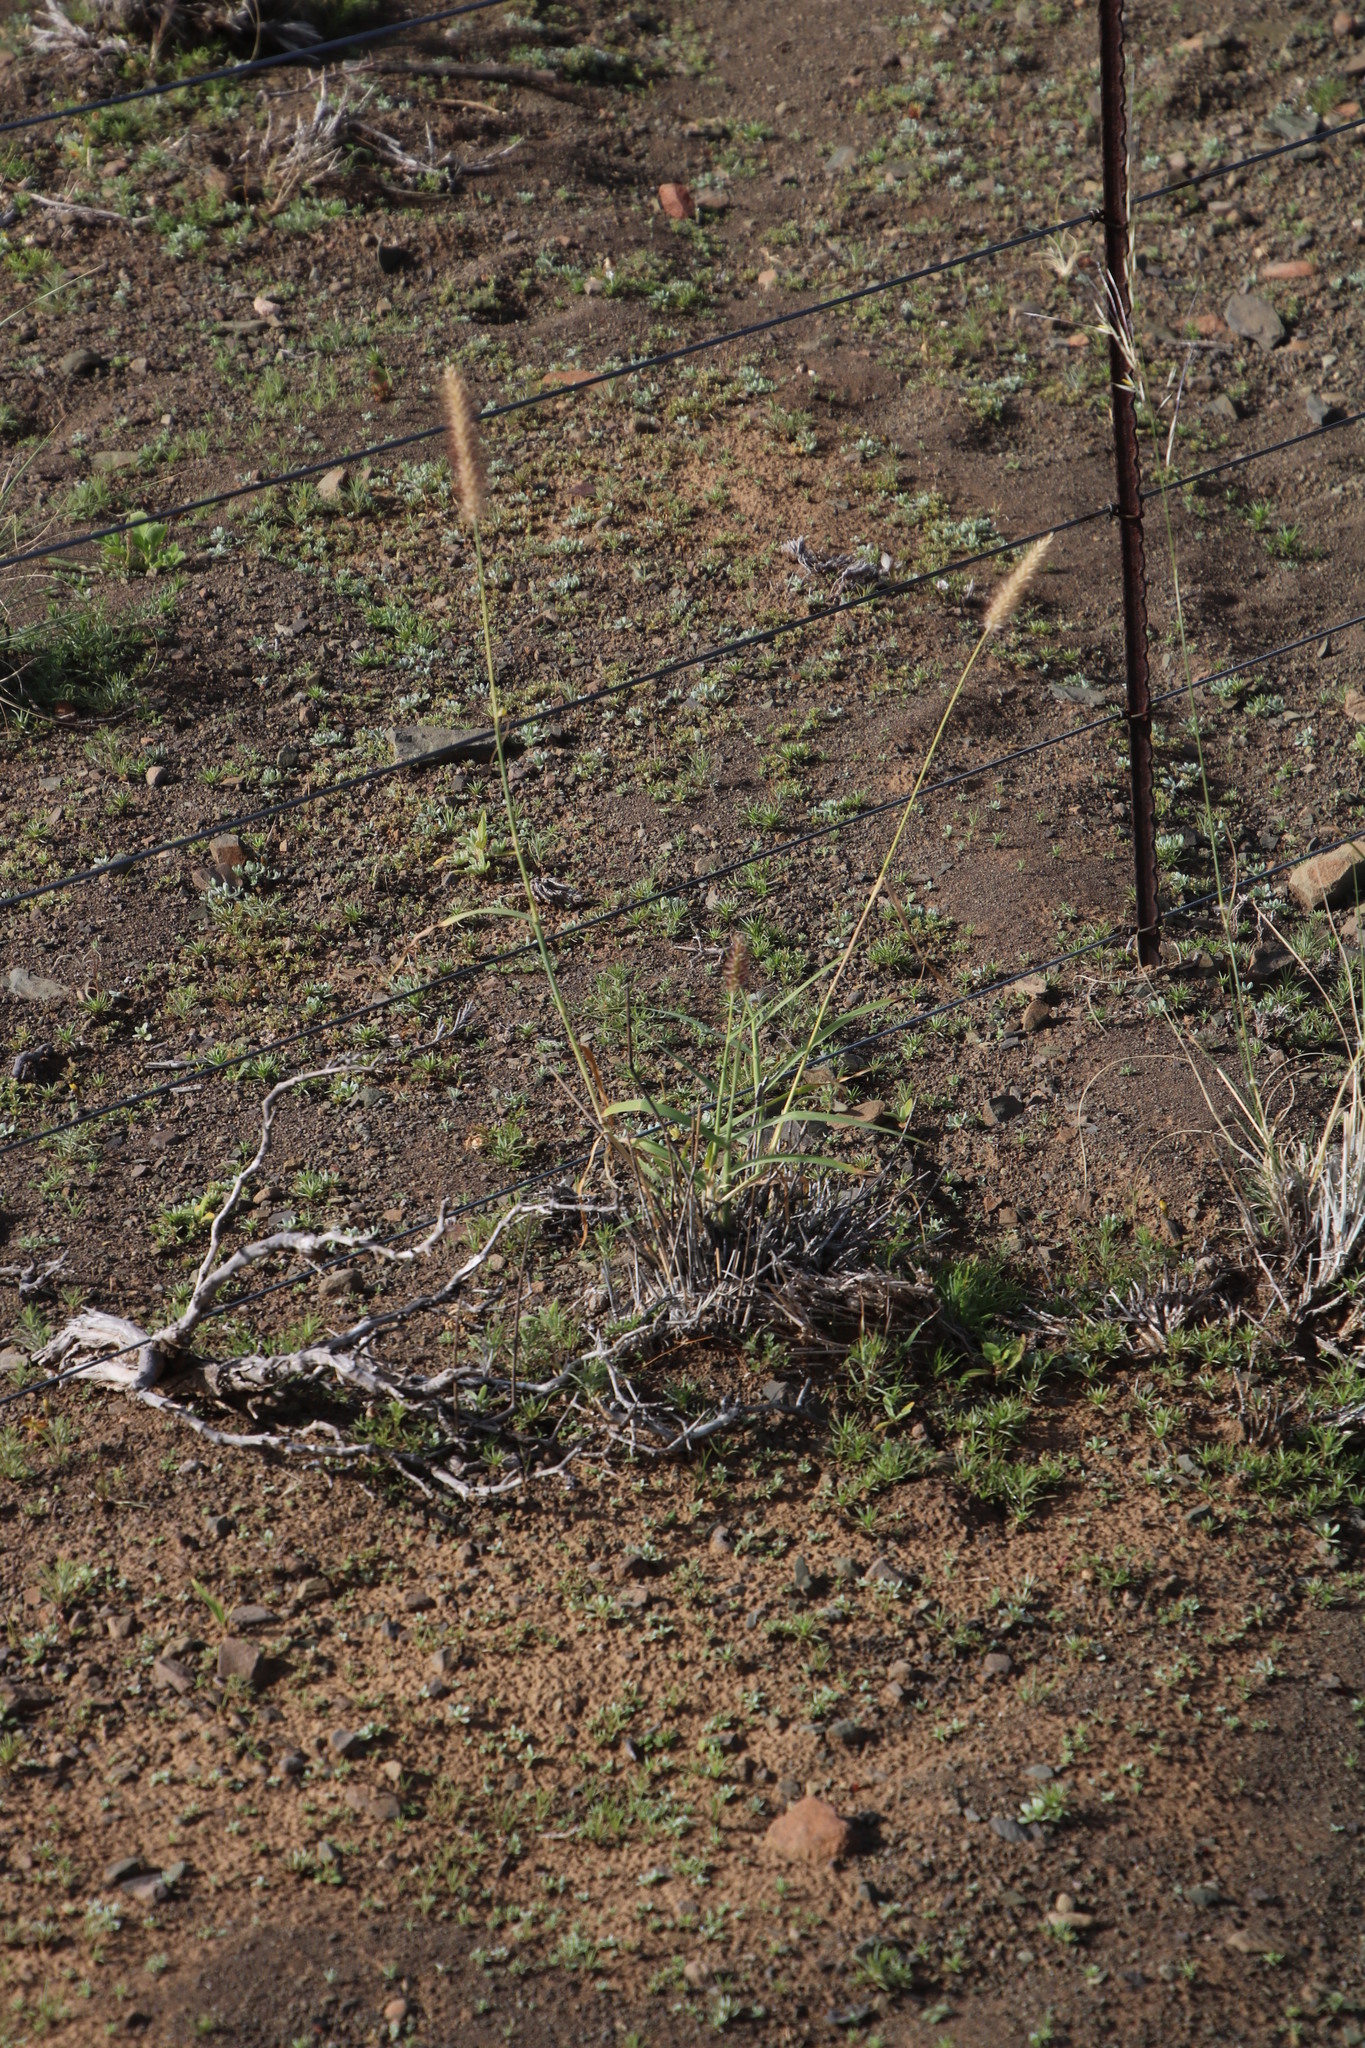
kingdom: Plantae
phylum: Tracheophyta
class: Liliopsida
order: Poales
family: Poaceae
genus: Cenchrus
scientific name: Cenchrus ciliaris
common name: Buffelgrass
